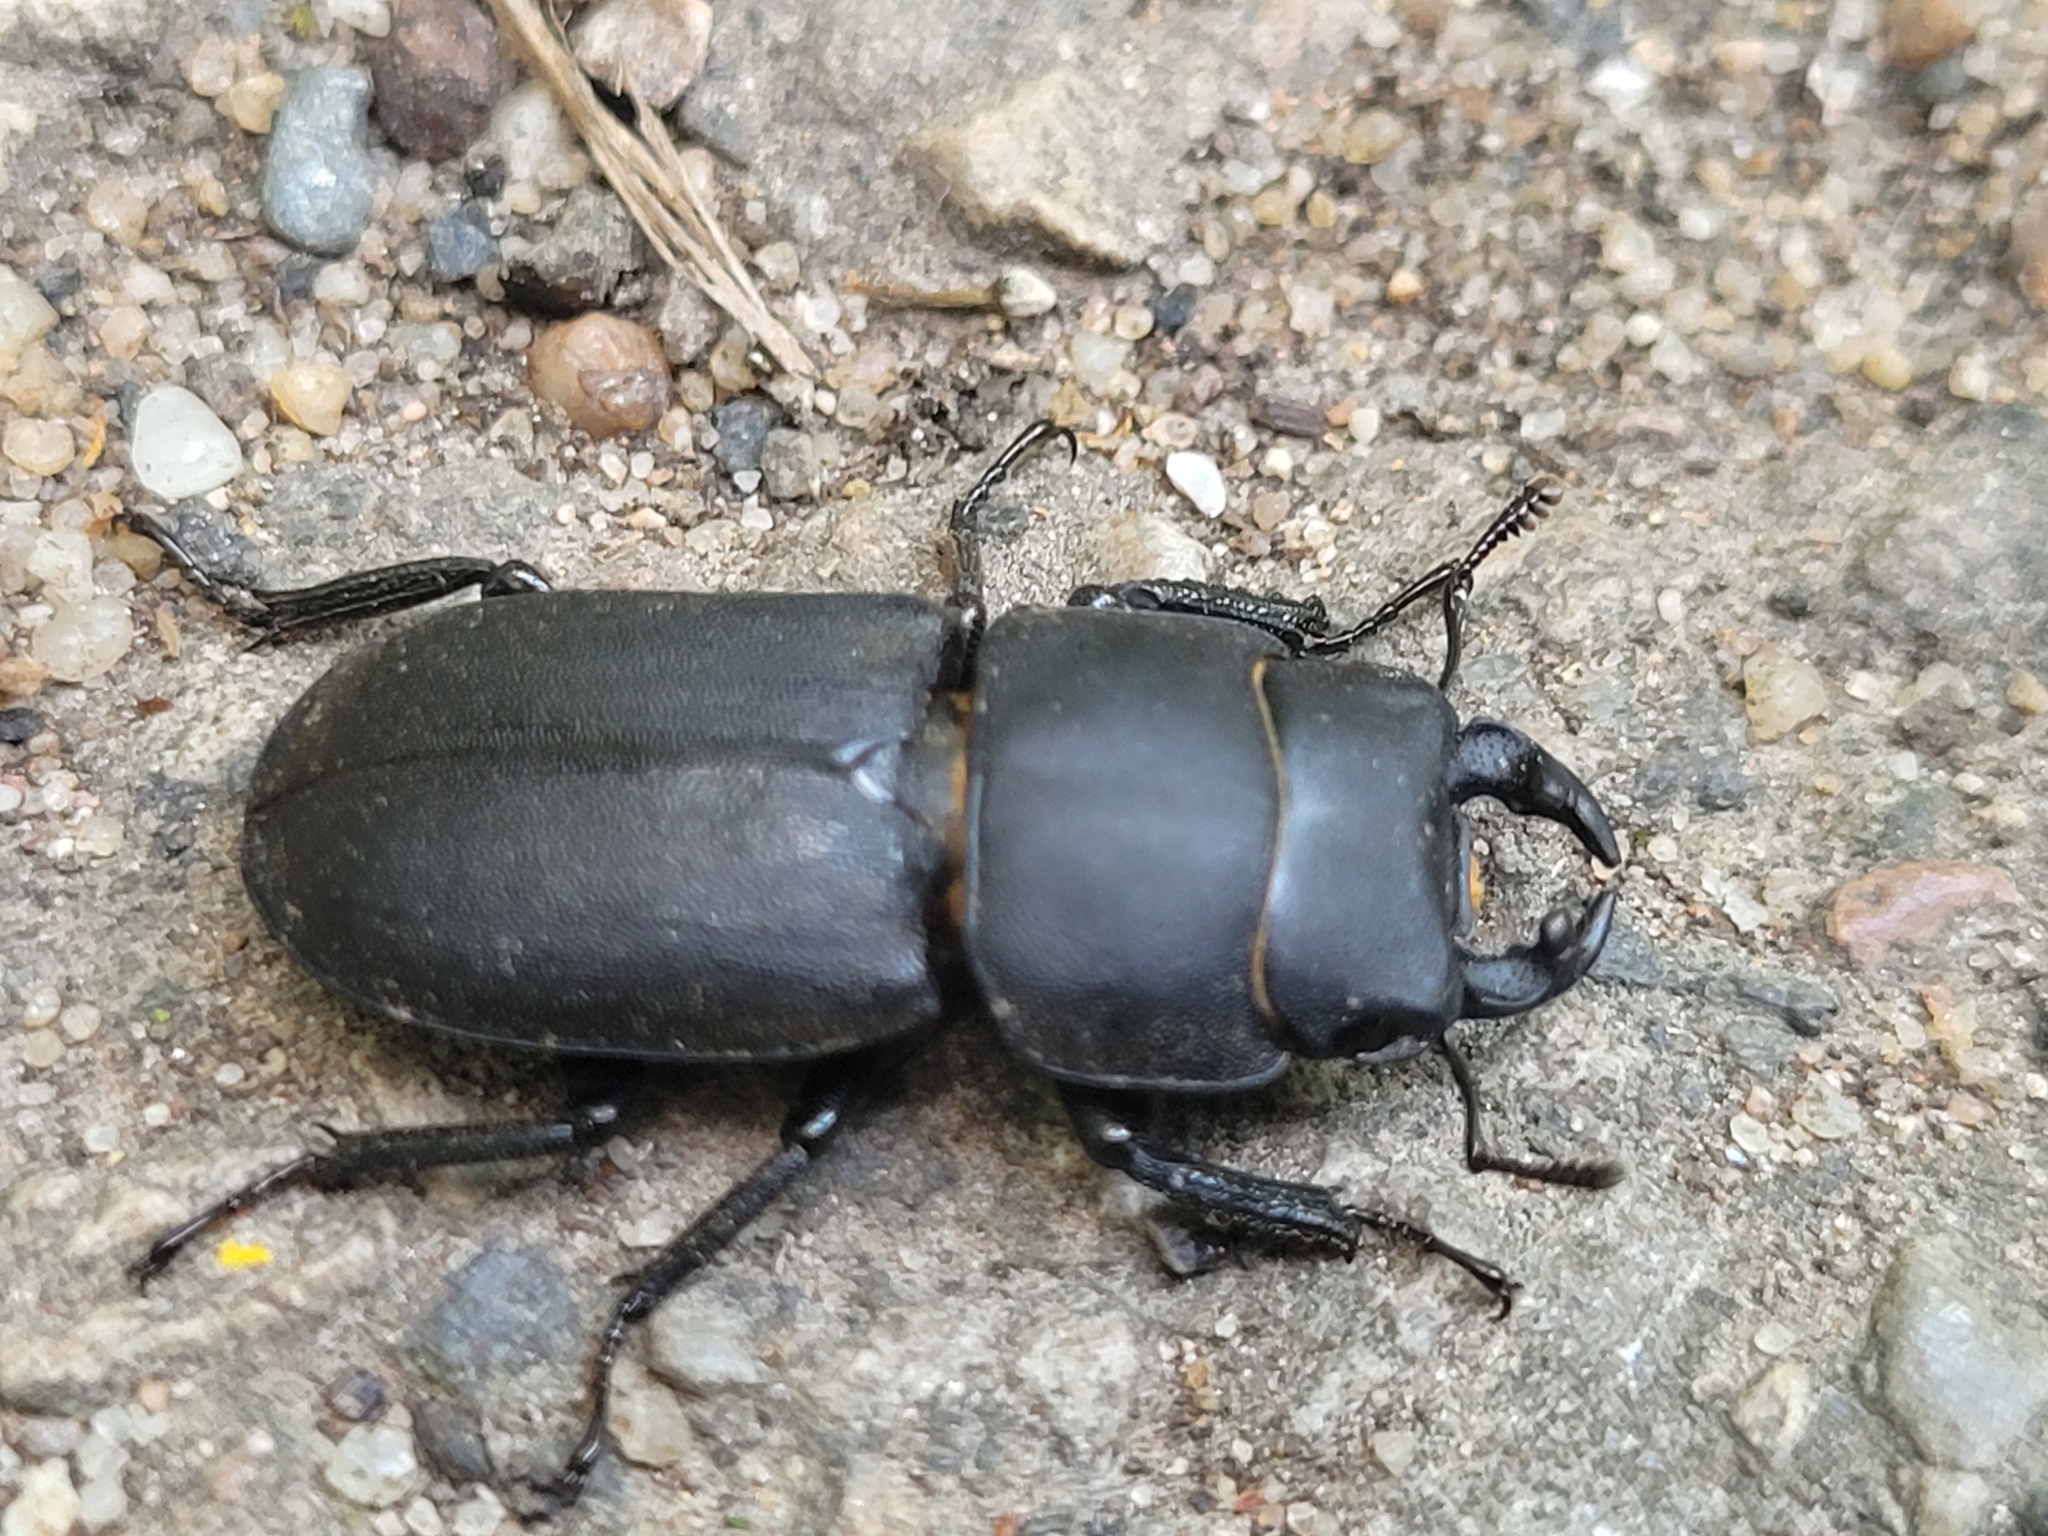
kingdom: Animalia
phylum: Arthropoda
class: Insecta
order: Coleoptera
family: Lucanidae
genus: Dorcus
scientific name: Dorcus parallelipipedus
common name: Lesser stag beetle
